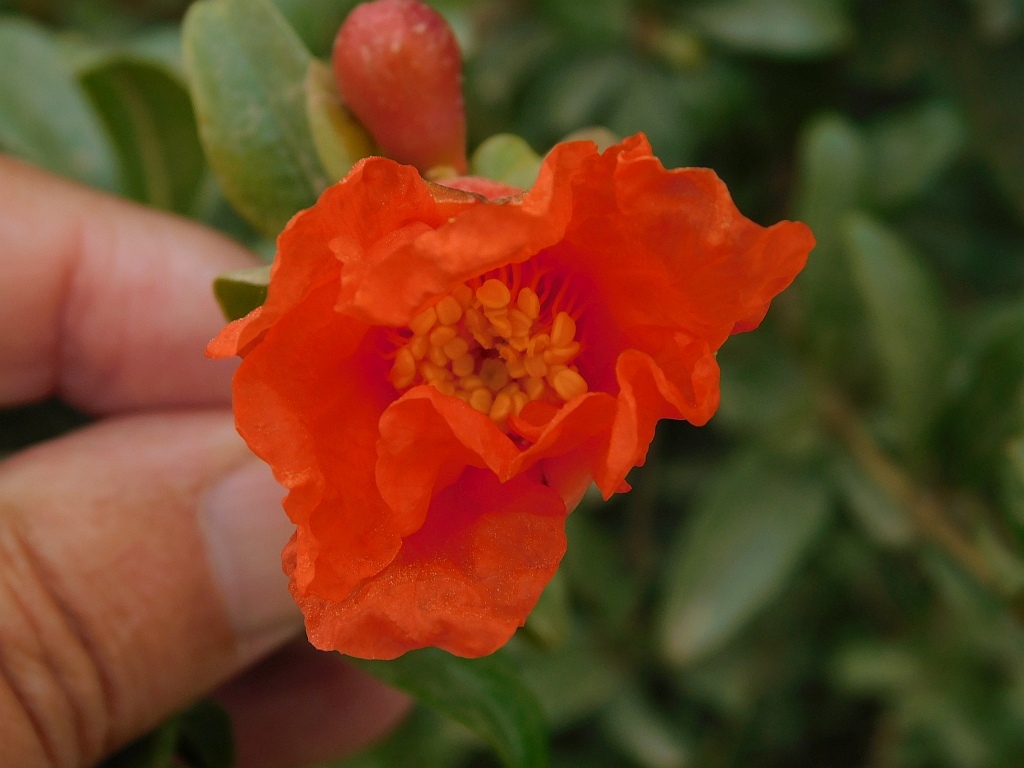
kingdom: Plantae
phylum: Tracheophyta
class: Magnoliopsida
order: Myrtales
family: Lythraceae
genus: Punica
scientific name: Punica granatum
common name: Pomegranate
